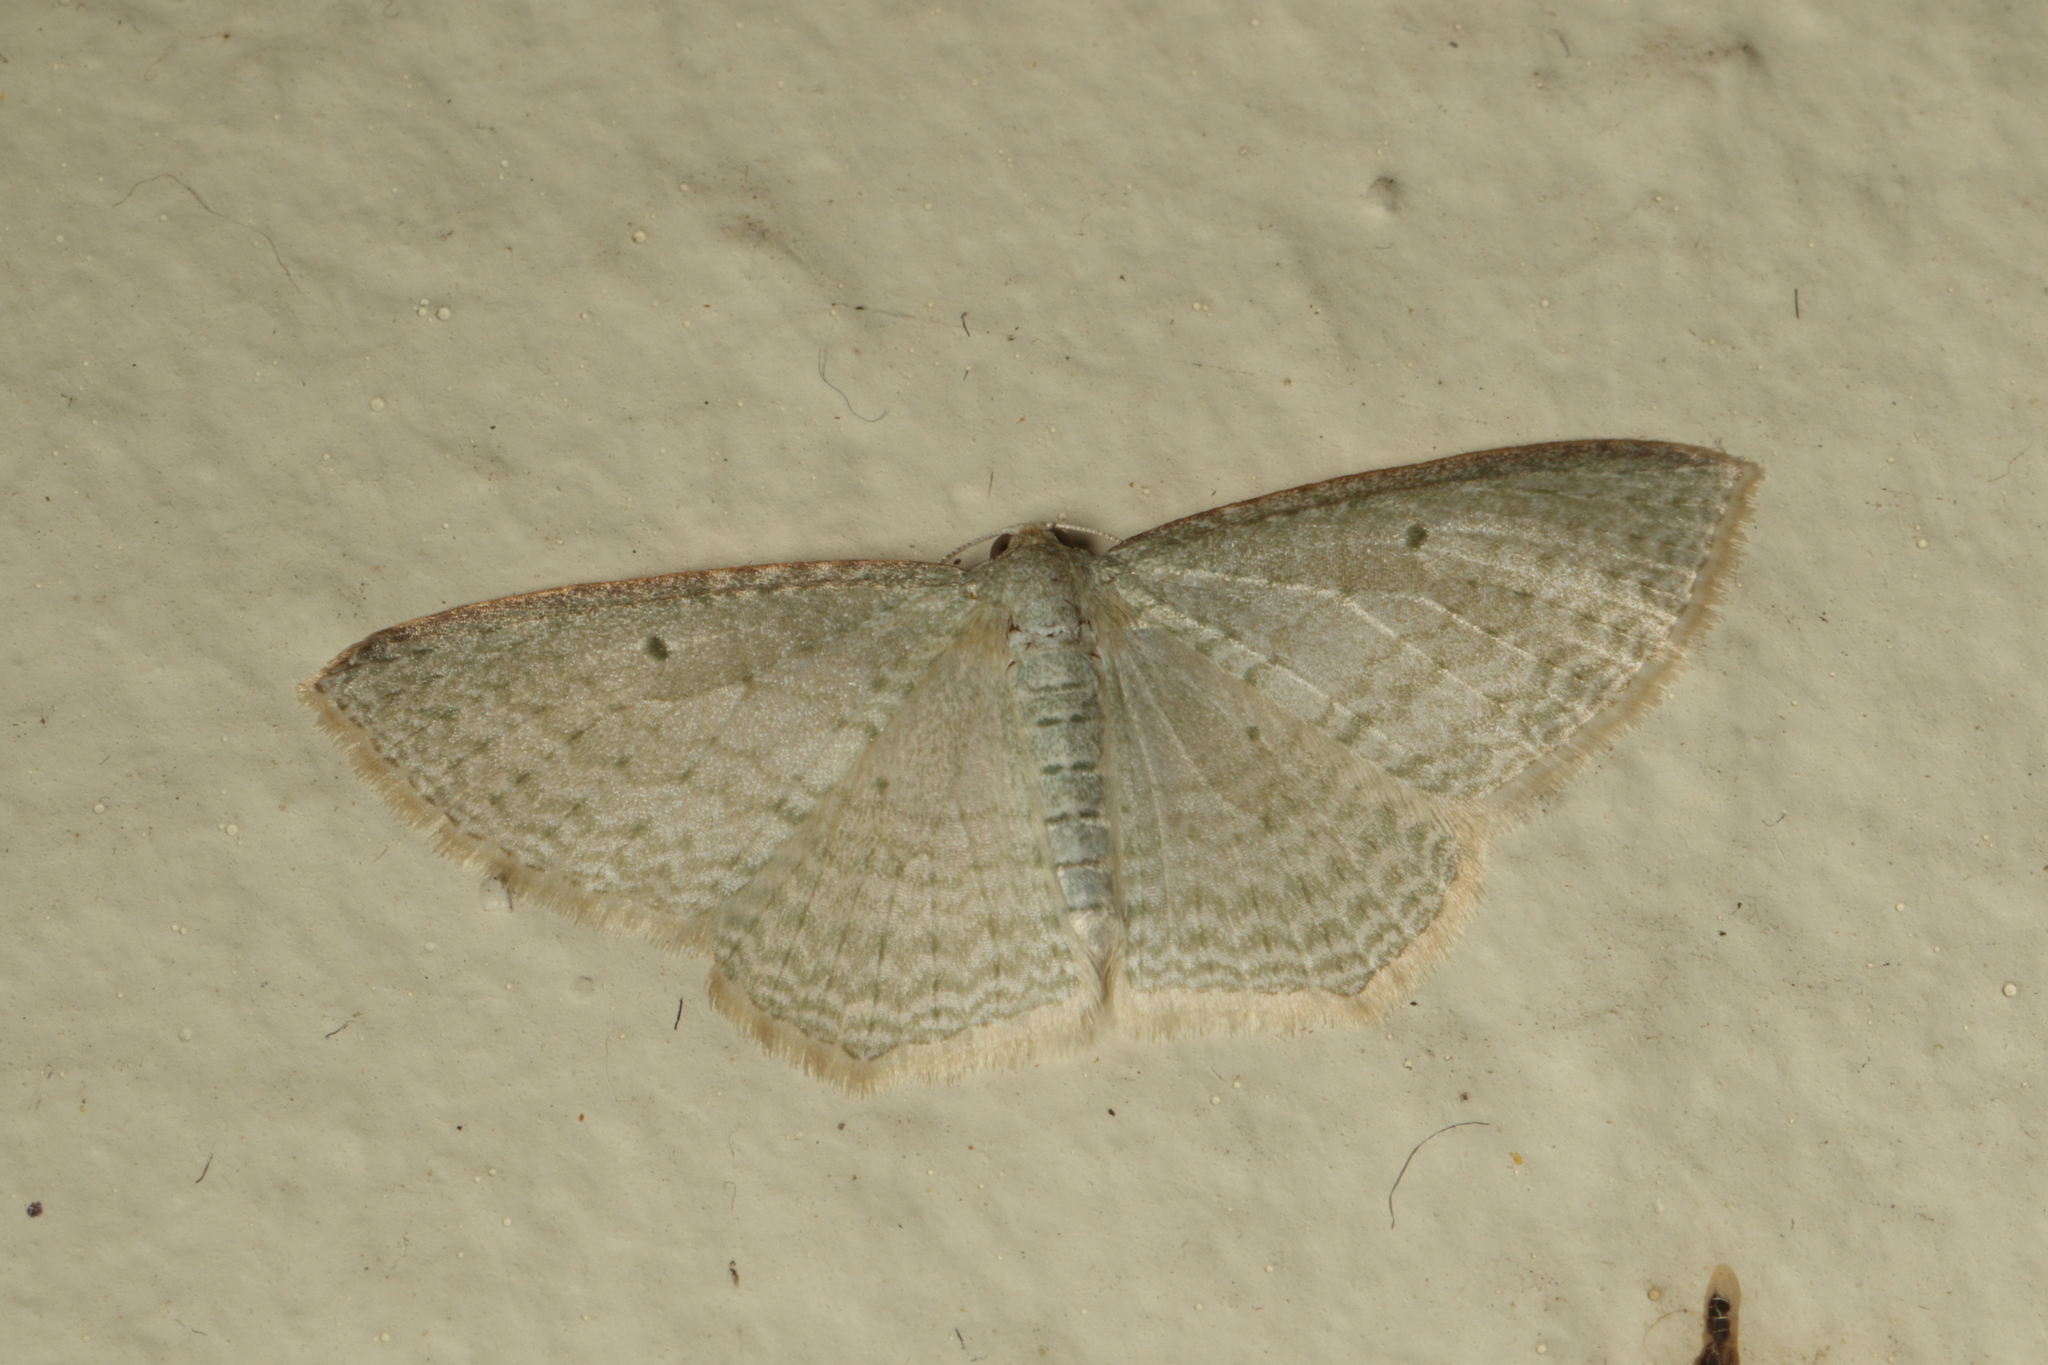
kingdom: Animalia
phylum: Arthropoda
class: Insecta
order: Lepidoptera
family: Geometridae
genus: Poecilasthena
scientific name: Poecilasthena pulchraria
